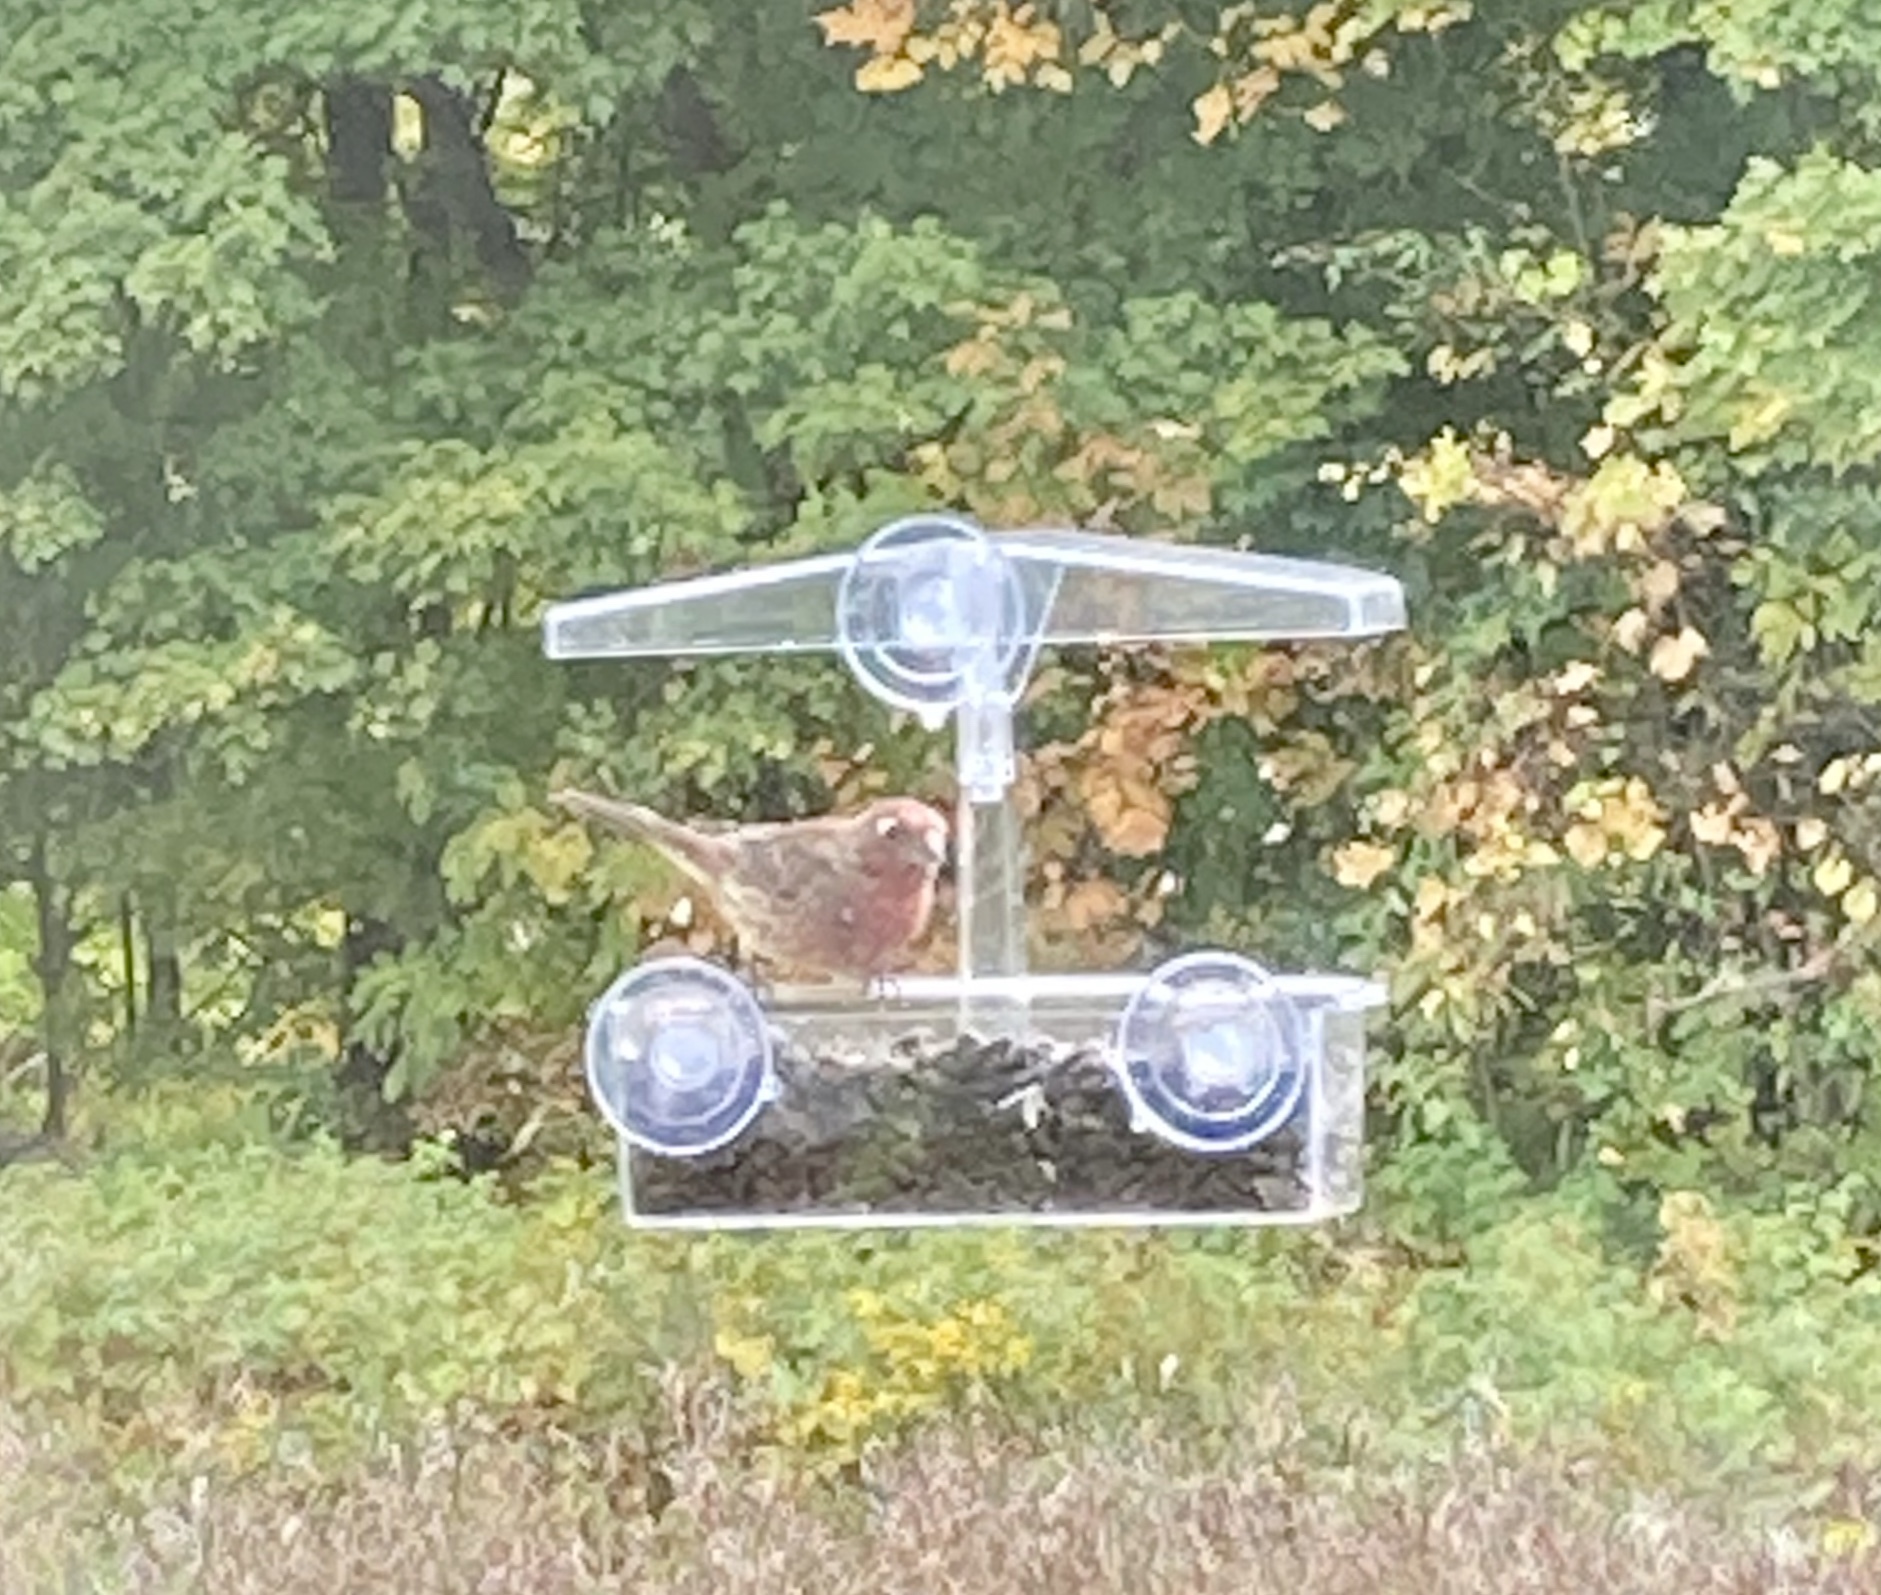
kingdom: Animalia
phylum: Chordata
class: Aves
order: Passeriformes
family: Fringillidae
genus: Haemorhous
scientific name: Haemorhous mexicanus
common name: House finch
